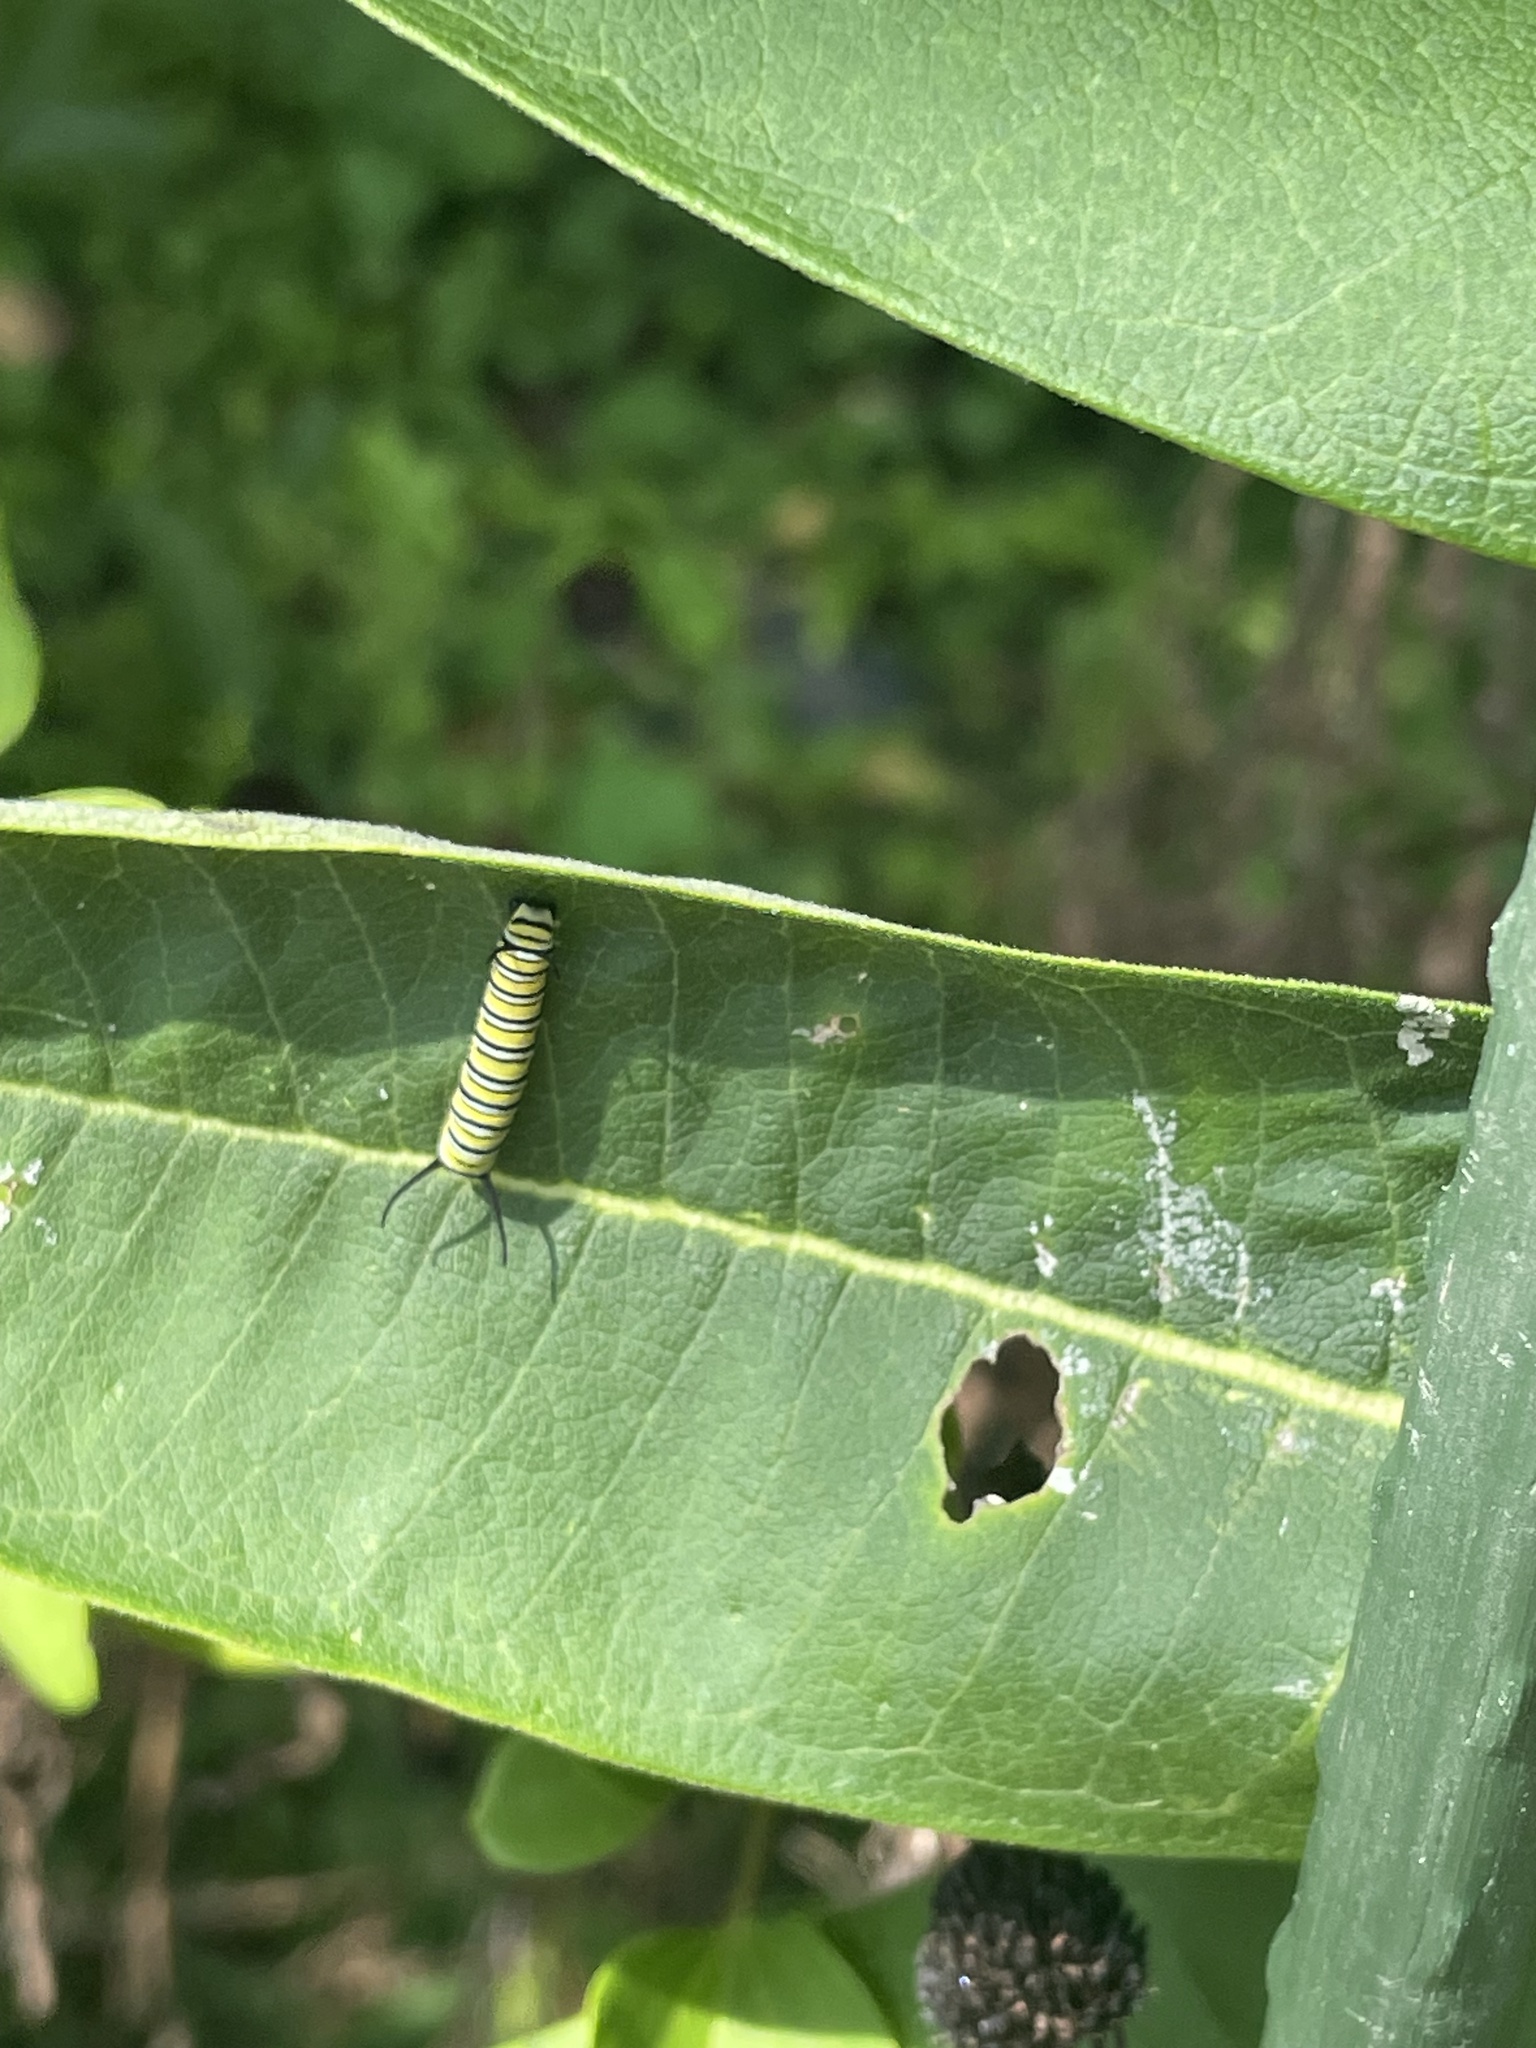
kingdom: Animalia
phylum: Arthropoda
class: Insecta
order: Lepidoptera
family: Nymphalidae
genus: Danaus
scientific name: Danaus plexippus
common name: Monarch
